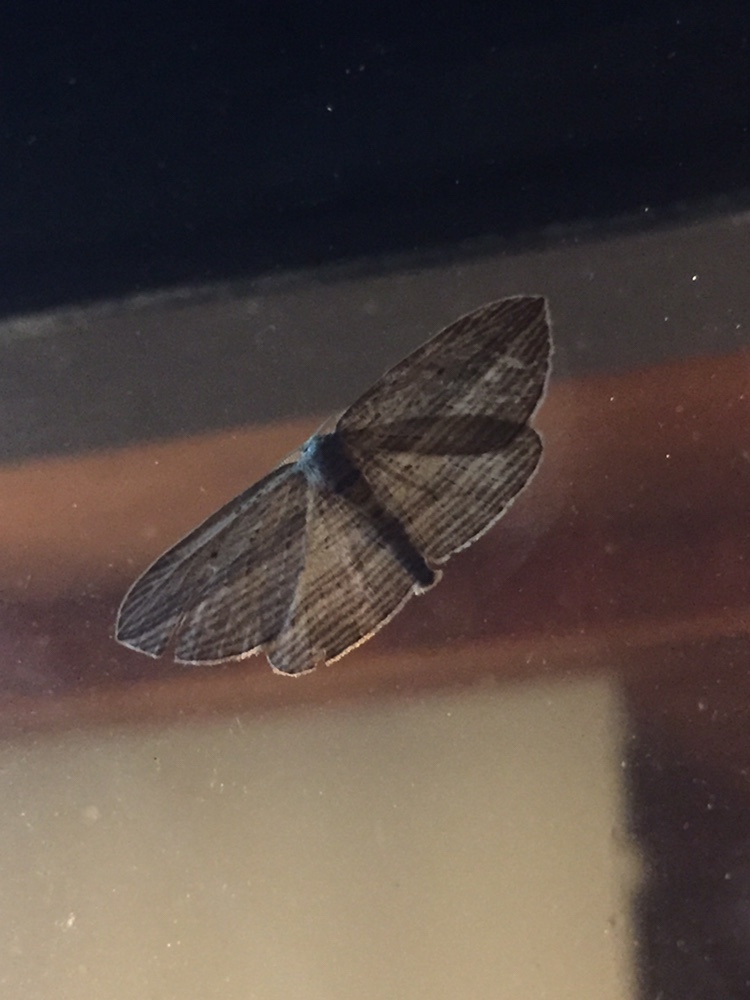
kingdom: Animalia
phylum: Arthropoda
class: Insecta
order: Lepidoptera
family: Geometridae
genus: Epiphryne
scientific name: Epiphryne verriculata
